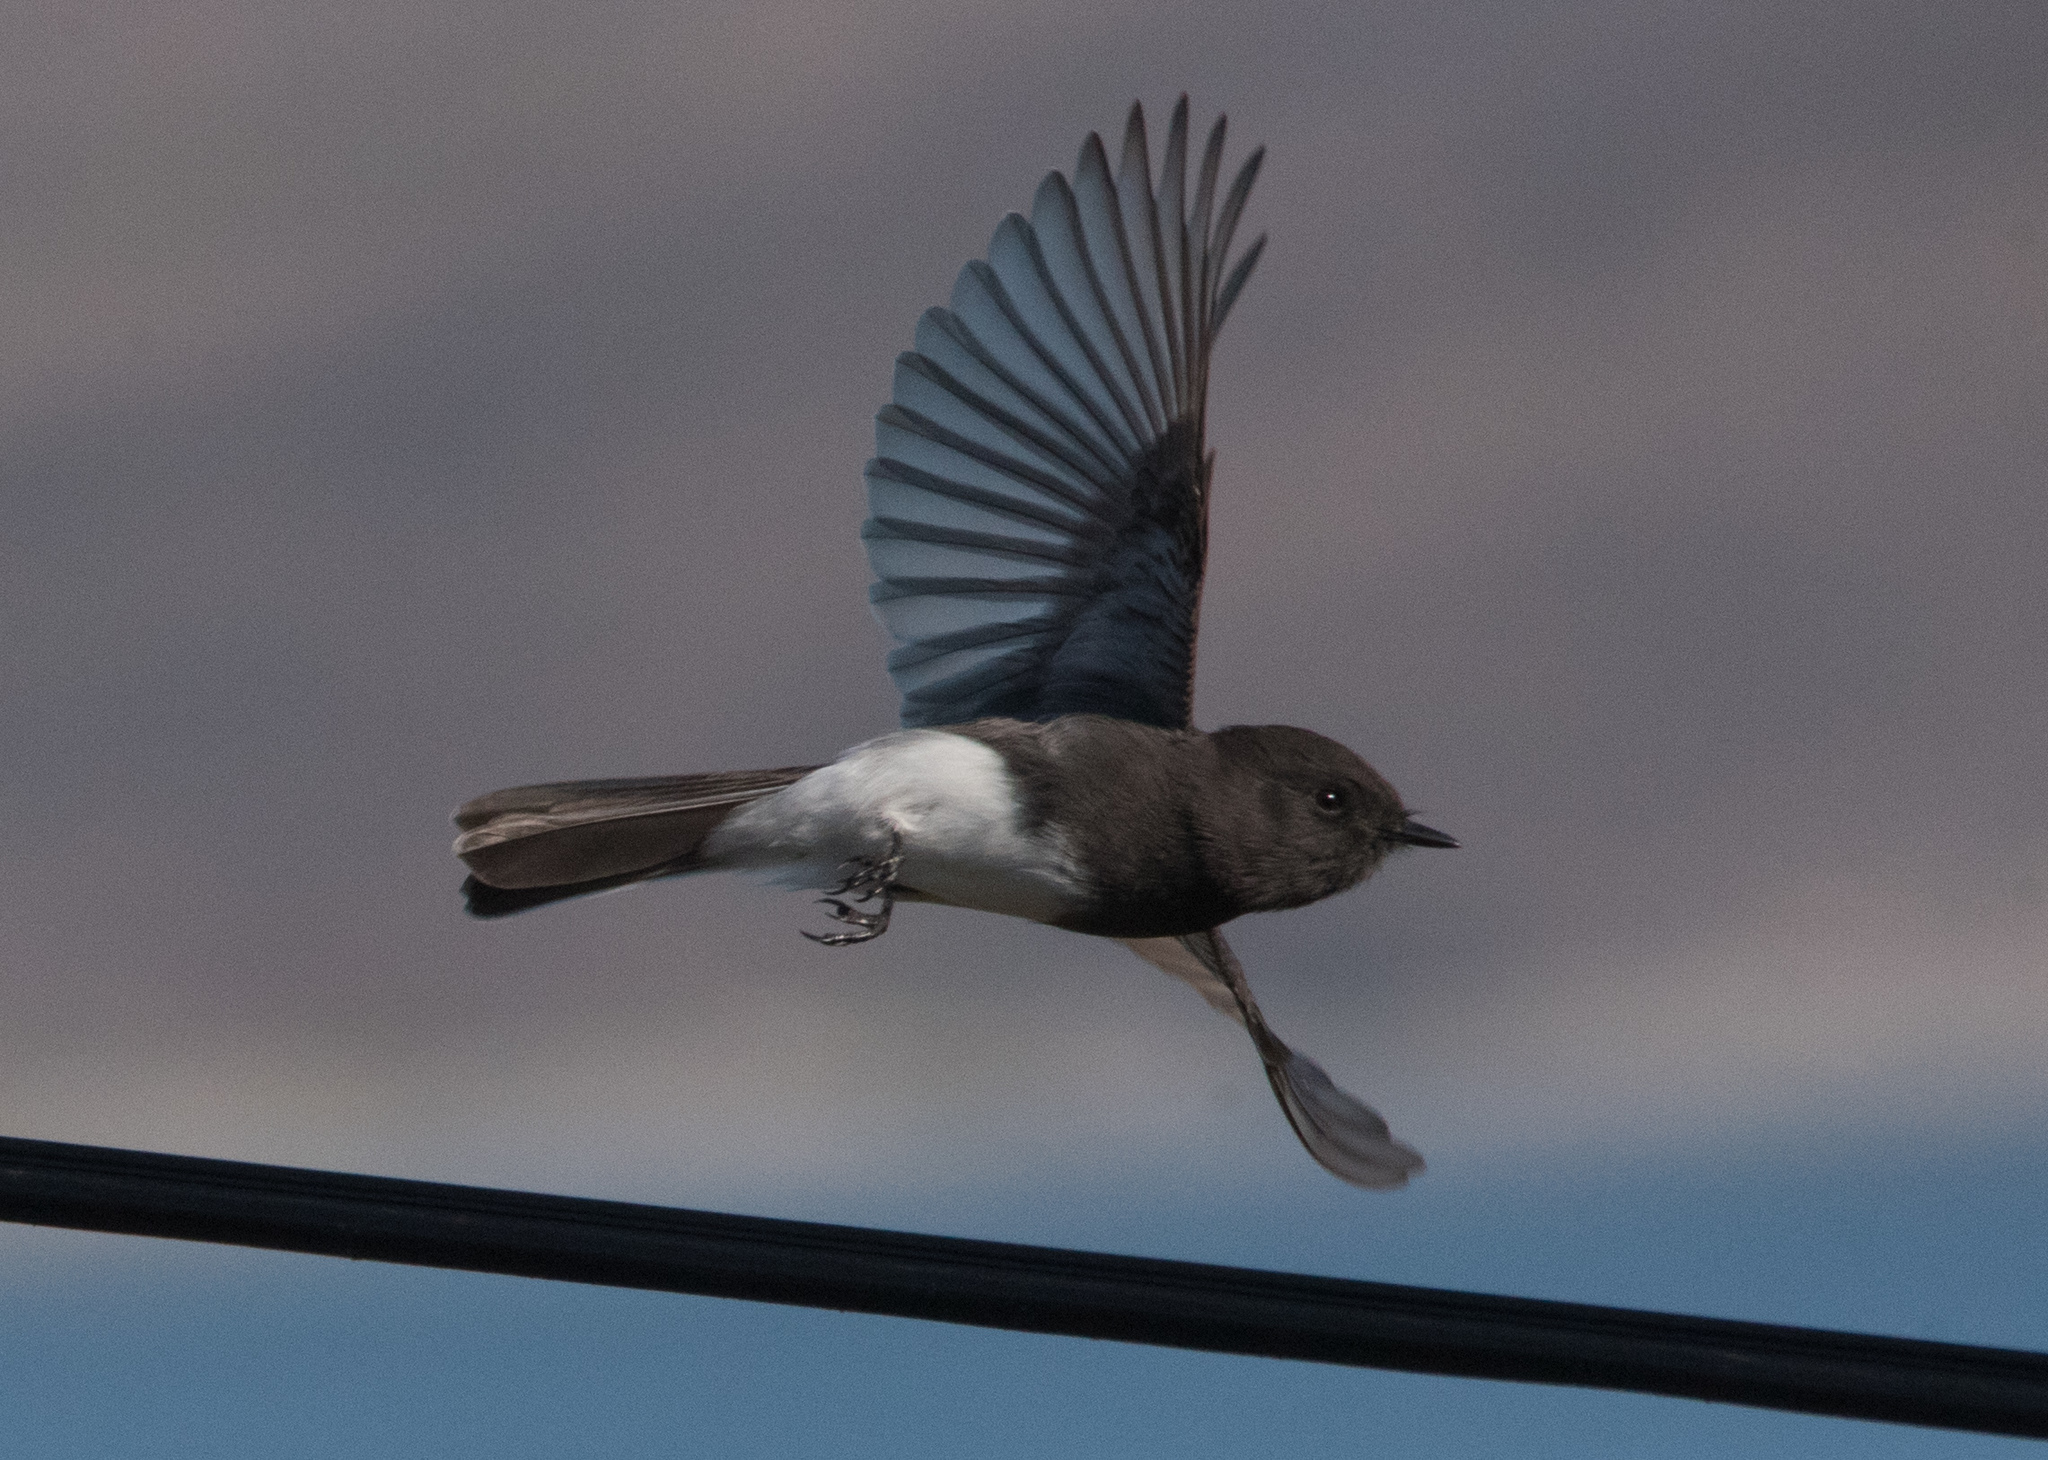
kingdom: Animalia
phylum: Chordata
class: Aves
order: Passeriformes
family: Tyrannidae
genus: Sayornis
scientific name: Sayornis nigricans
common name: Black phoebe
